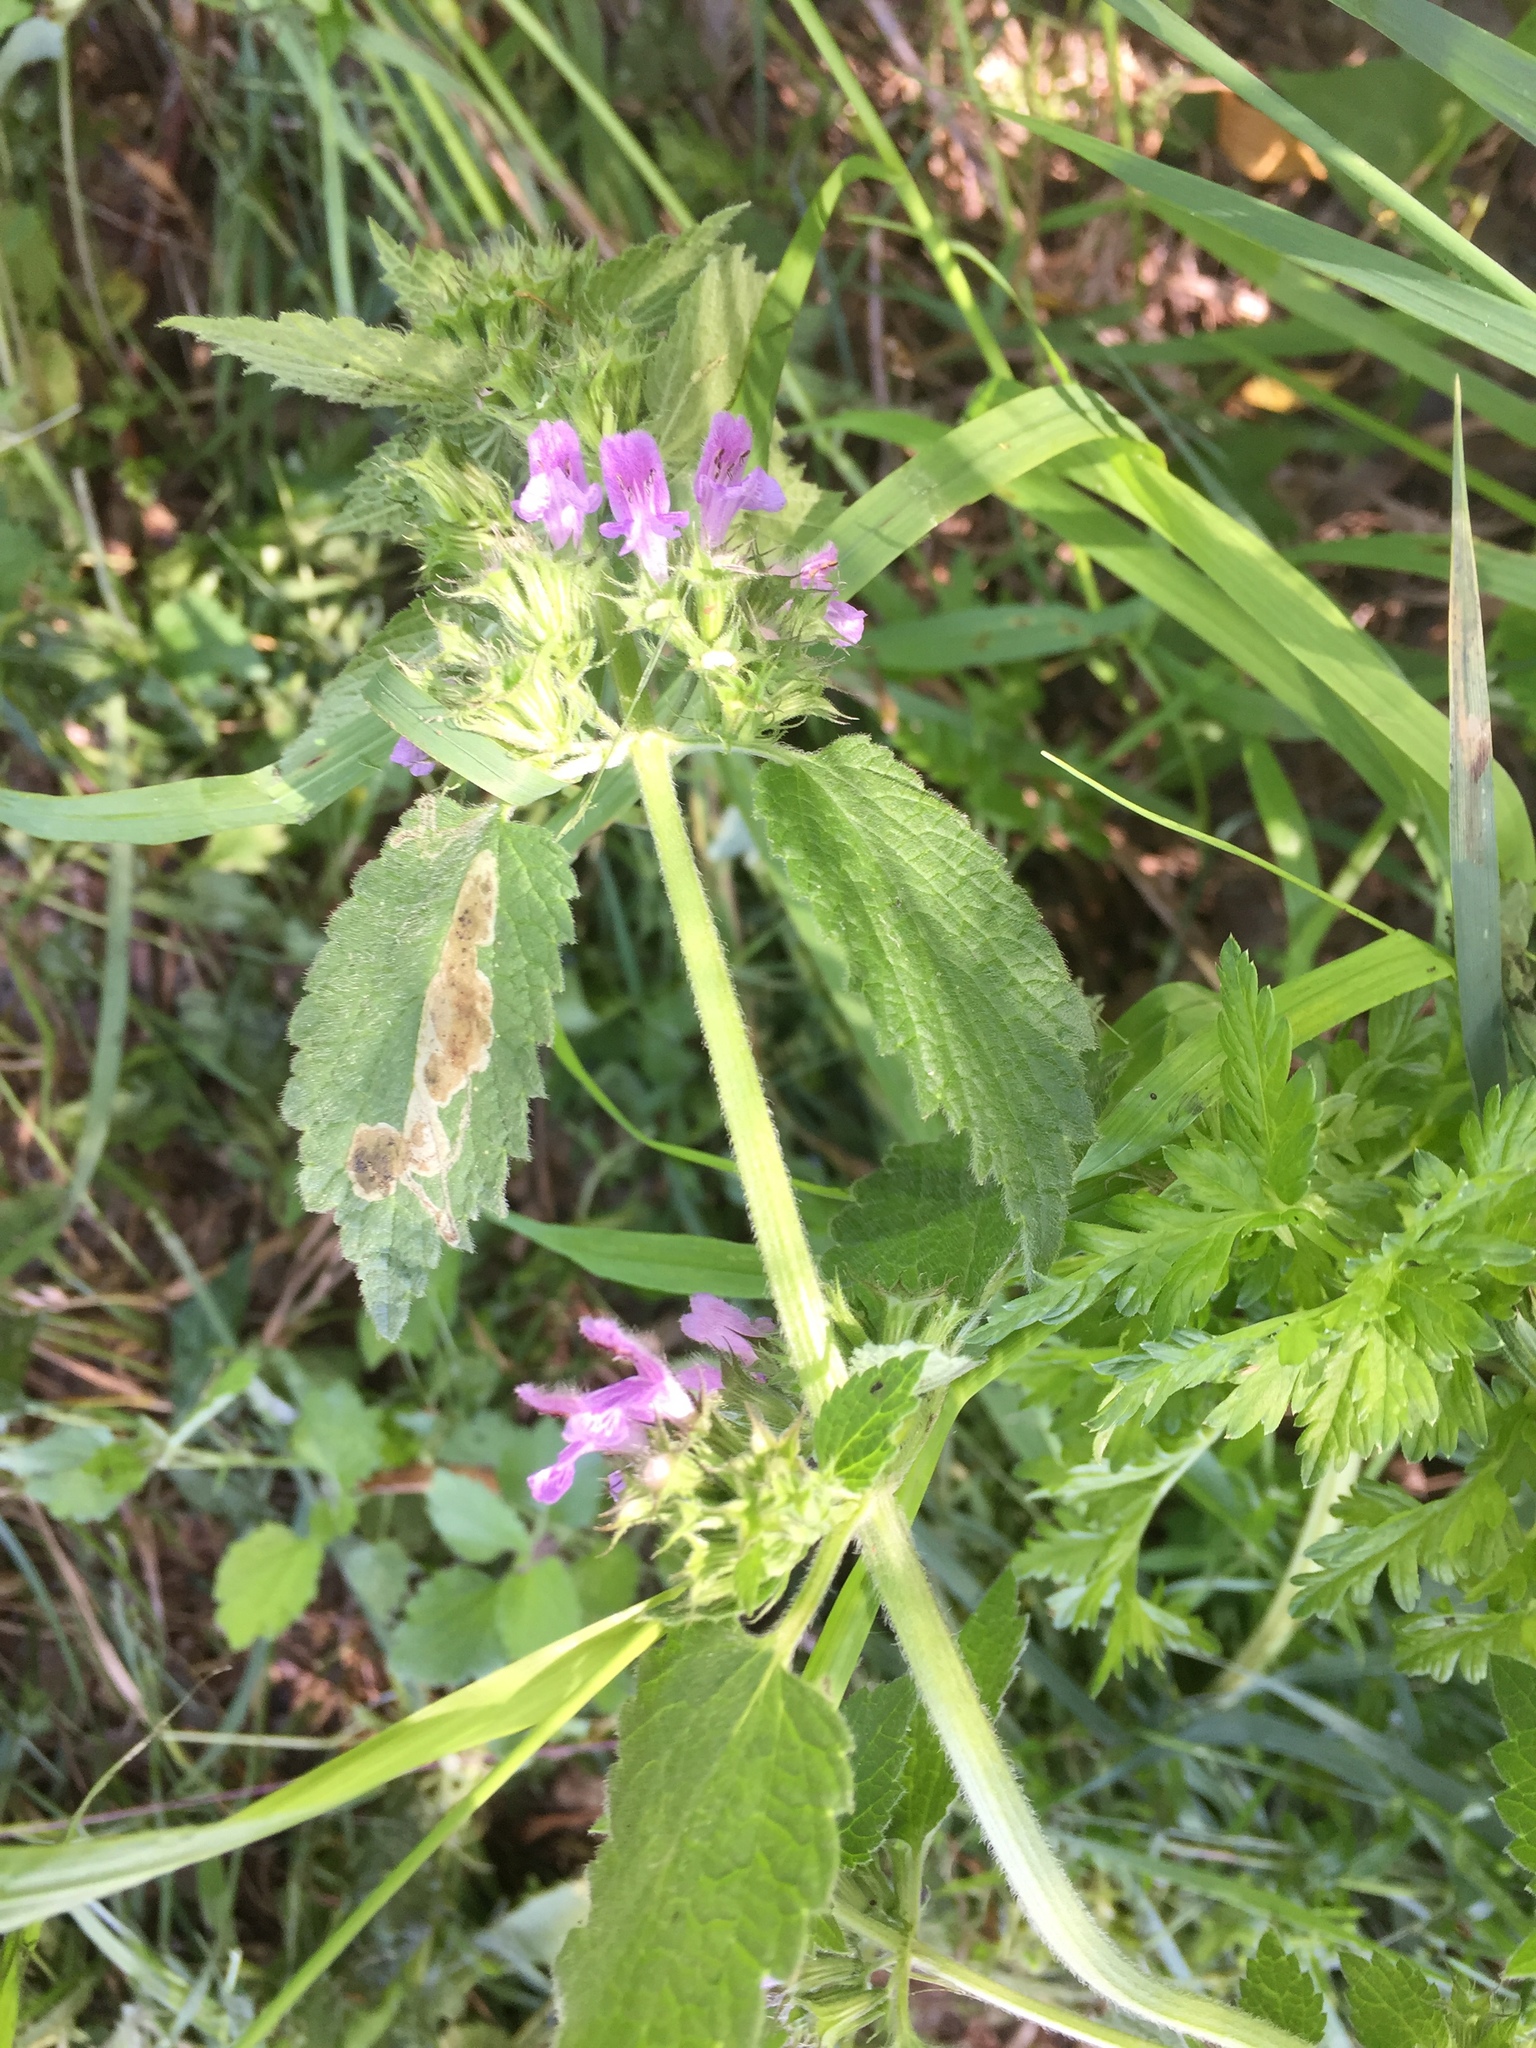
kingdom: Plantae
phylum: Tracheophyta
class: Magnoliopsida
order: Lamiales
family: Lamiaceae
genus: Ballota
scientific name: Ballota nigra
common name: Black horehound
